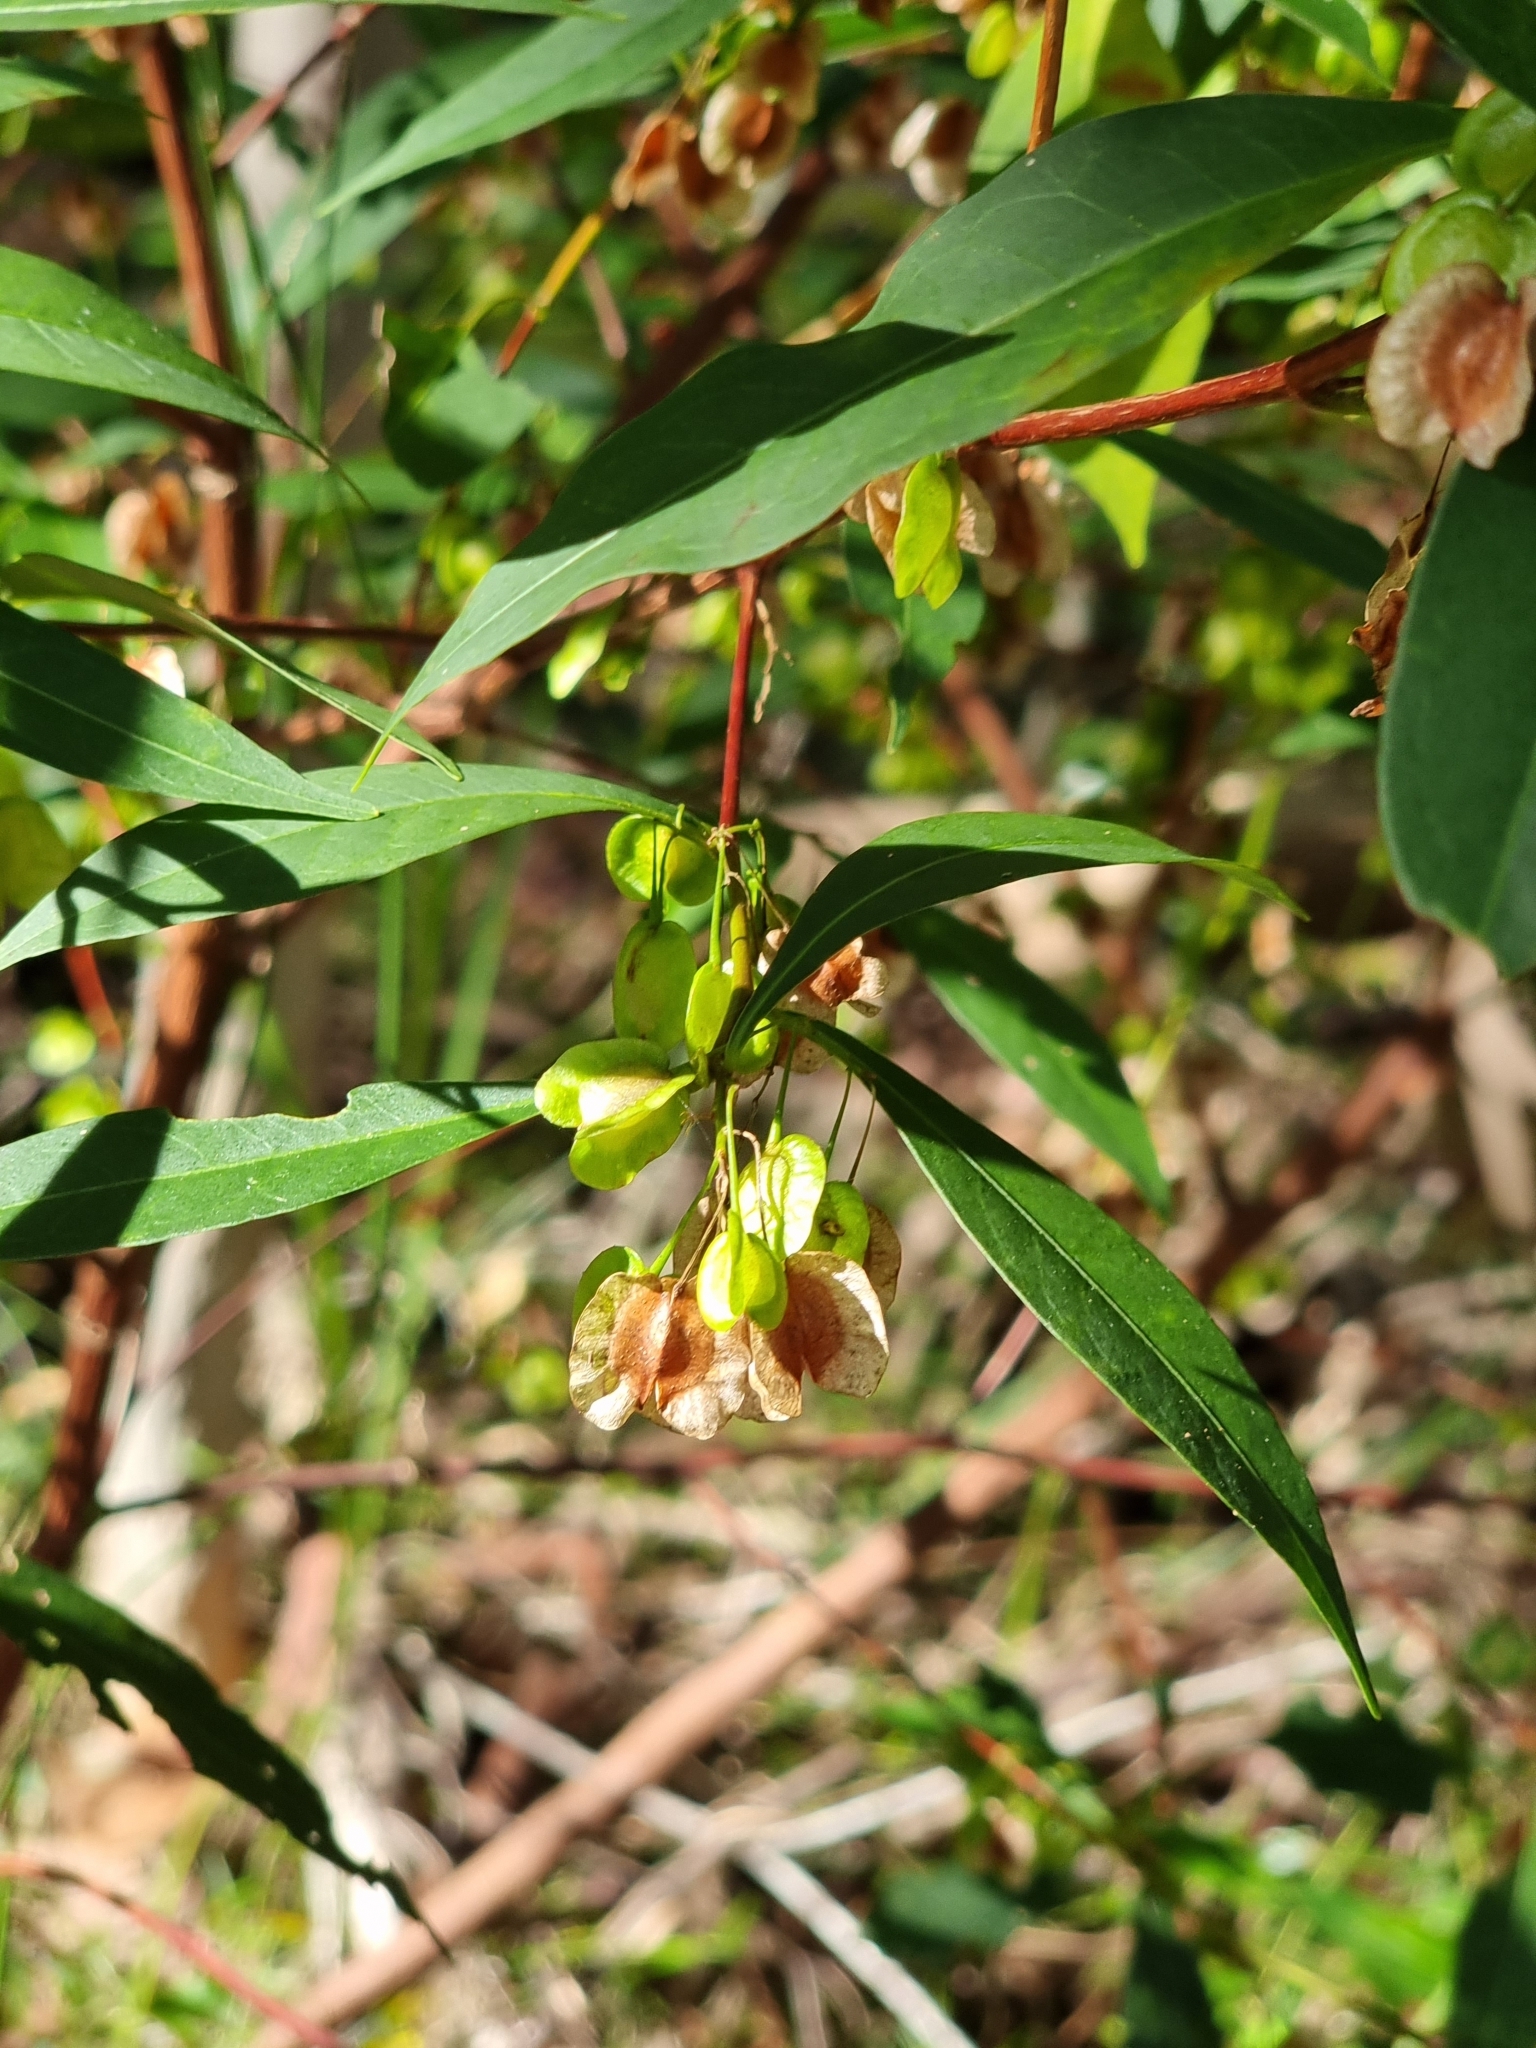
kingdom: Plantae
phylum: Tracheophyta
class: Magnoliopsida
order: Sapindales
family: Sapindaceae
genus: Dodonaea
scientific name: Dodonaea triquetra
